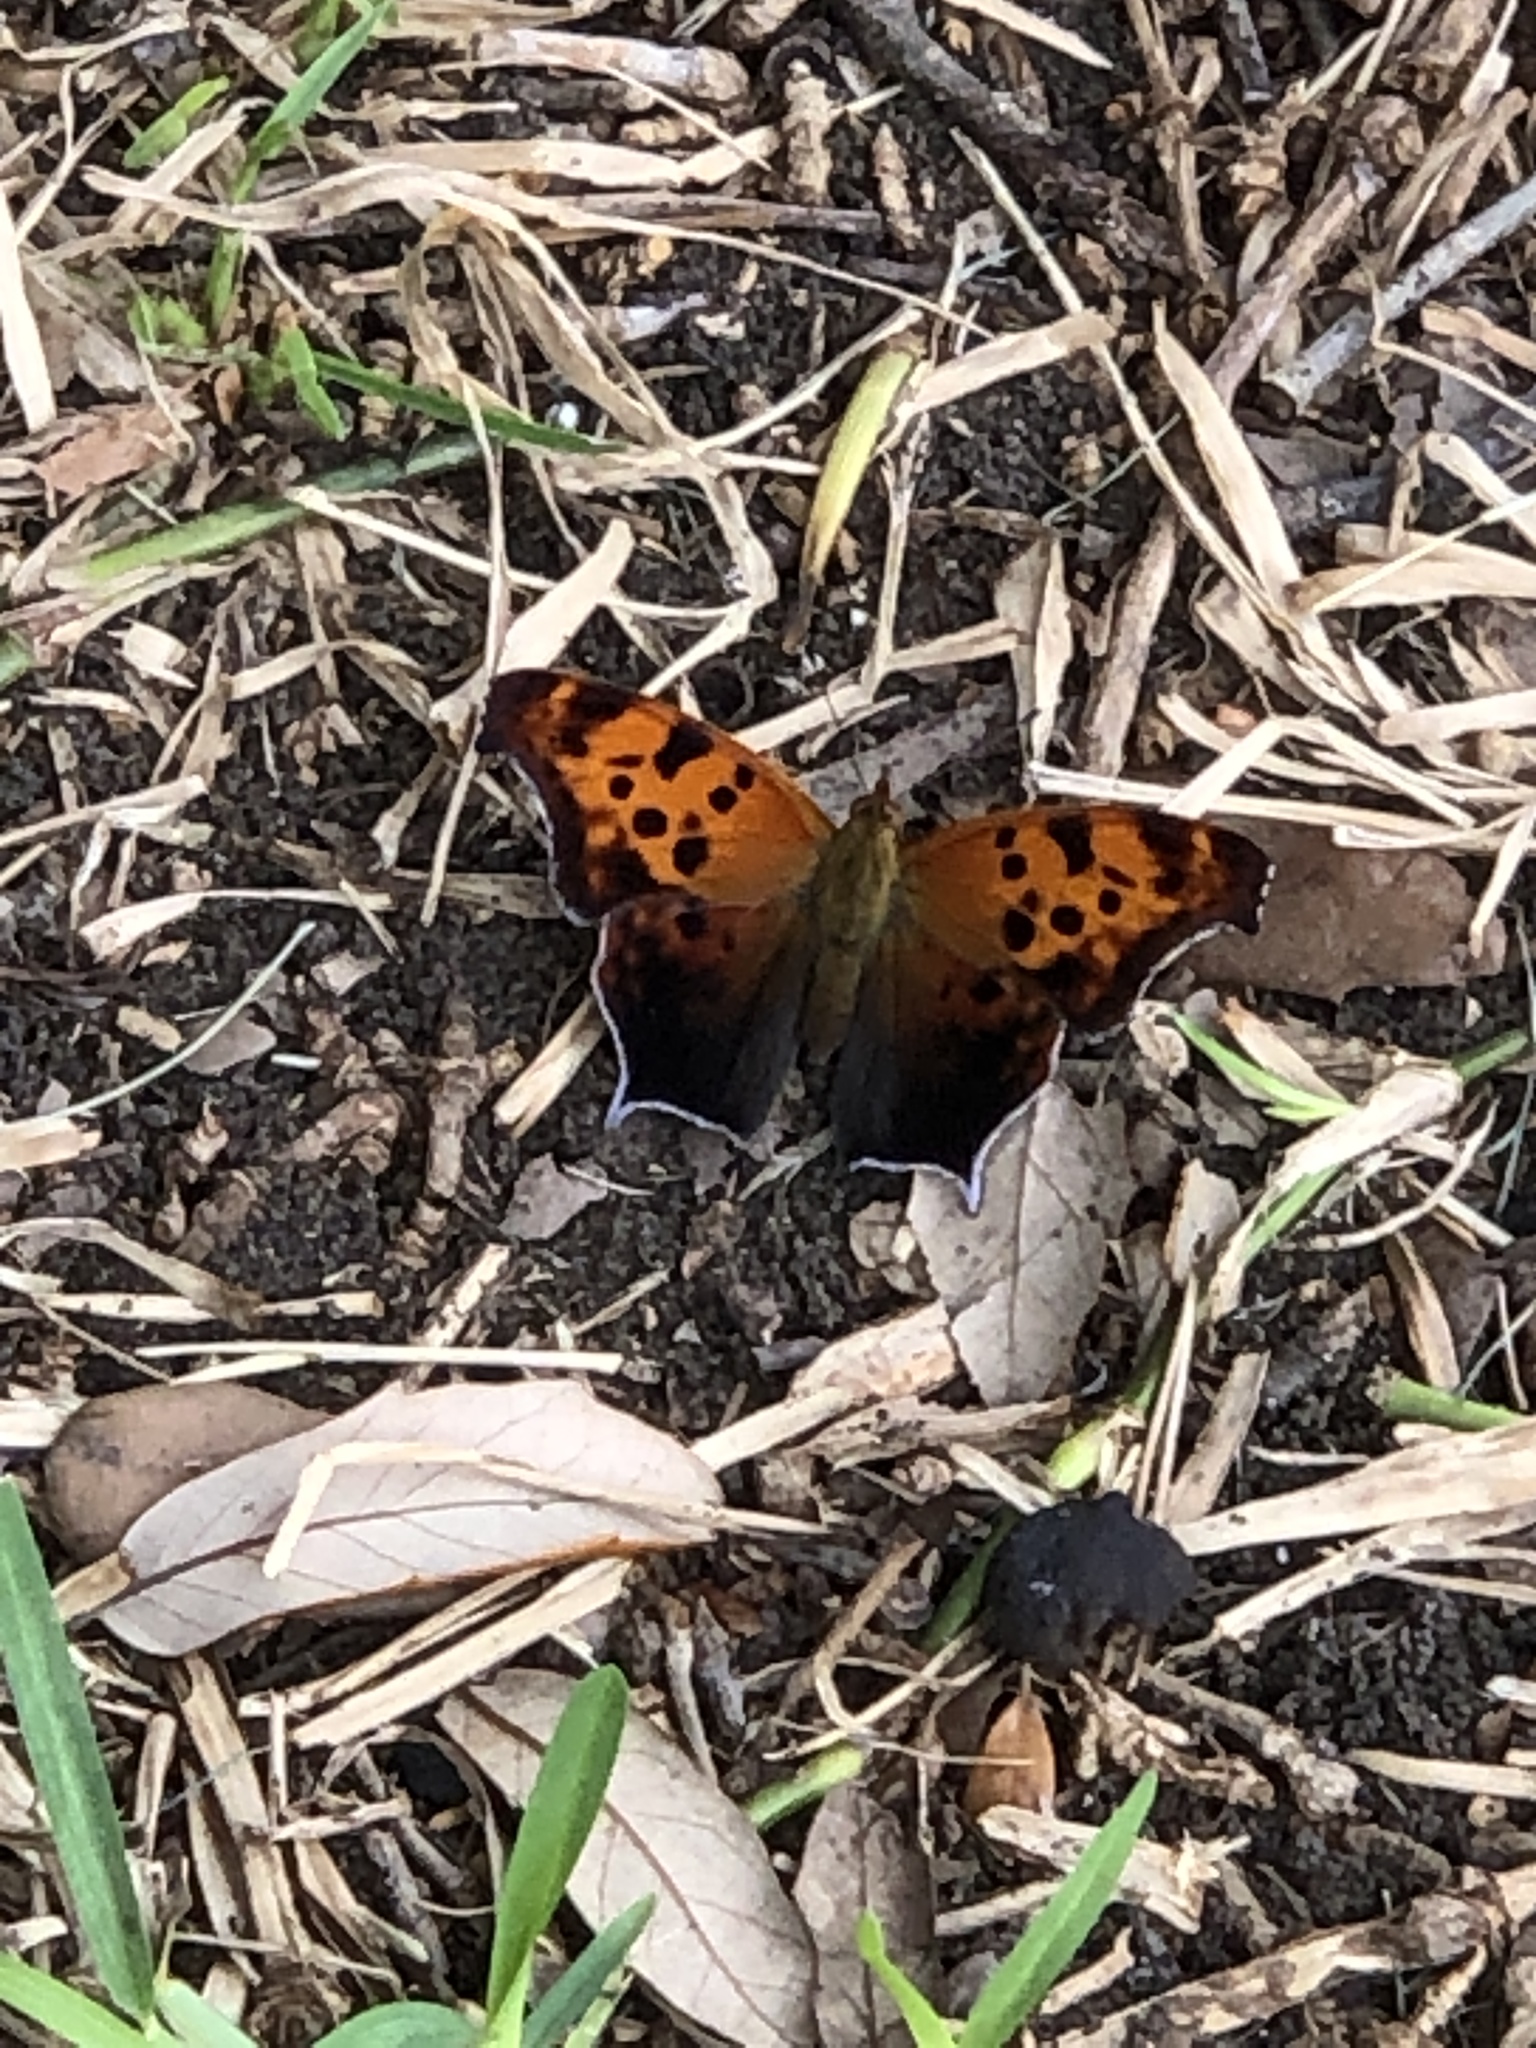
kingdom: Animalia
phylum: Arthropoda
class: Insecta
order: Lepidoptera
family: Nymphalidae
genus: Polygonia
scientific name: Polygonia interrogationis
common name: Question mark
